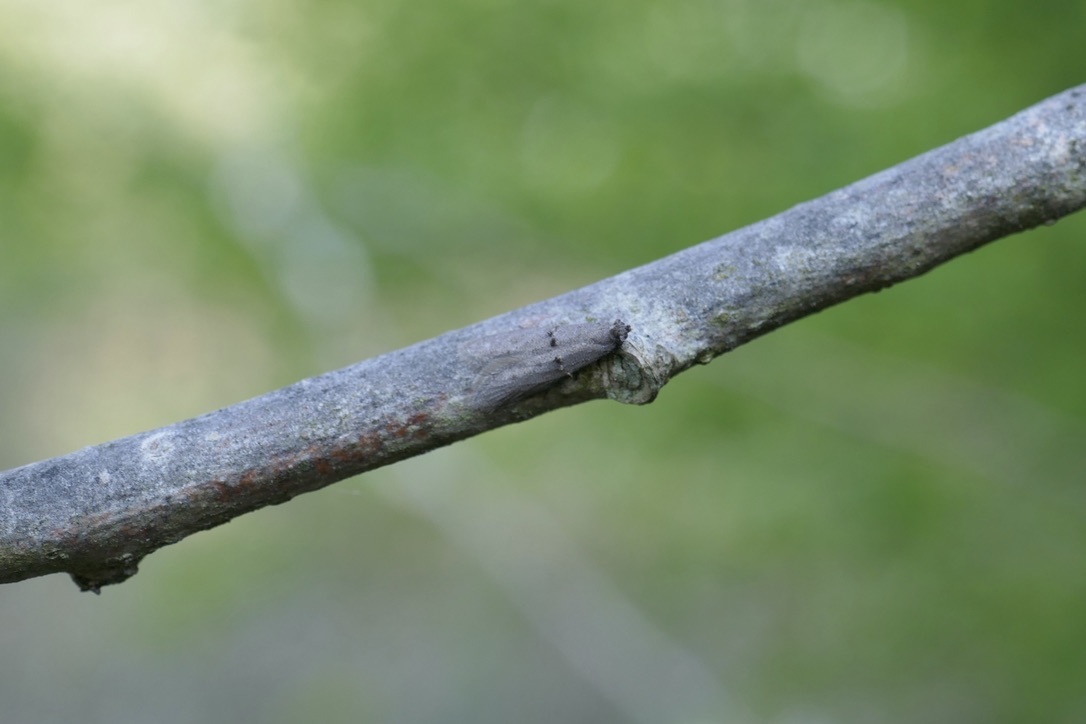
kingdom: Animalia
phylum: Arthropoda
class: Insecta
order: Lepidoptera
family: Urodidae
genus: Wockia
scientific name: Wockia asperipunctella
